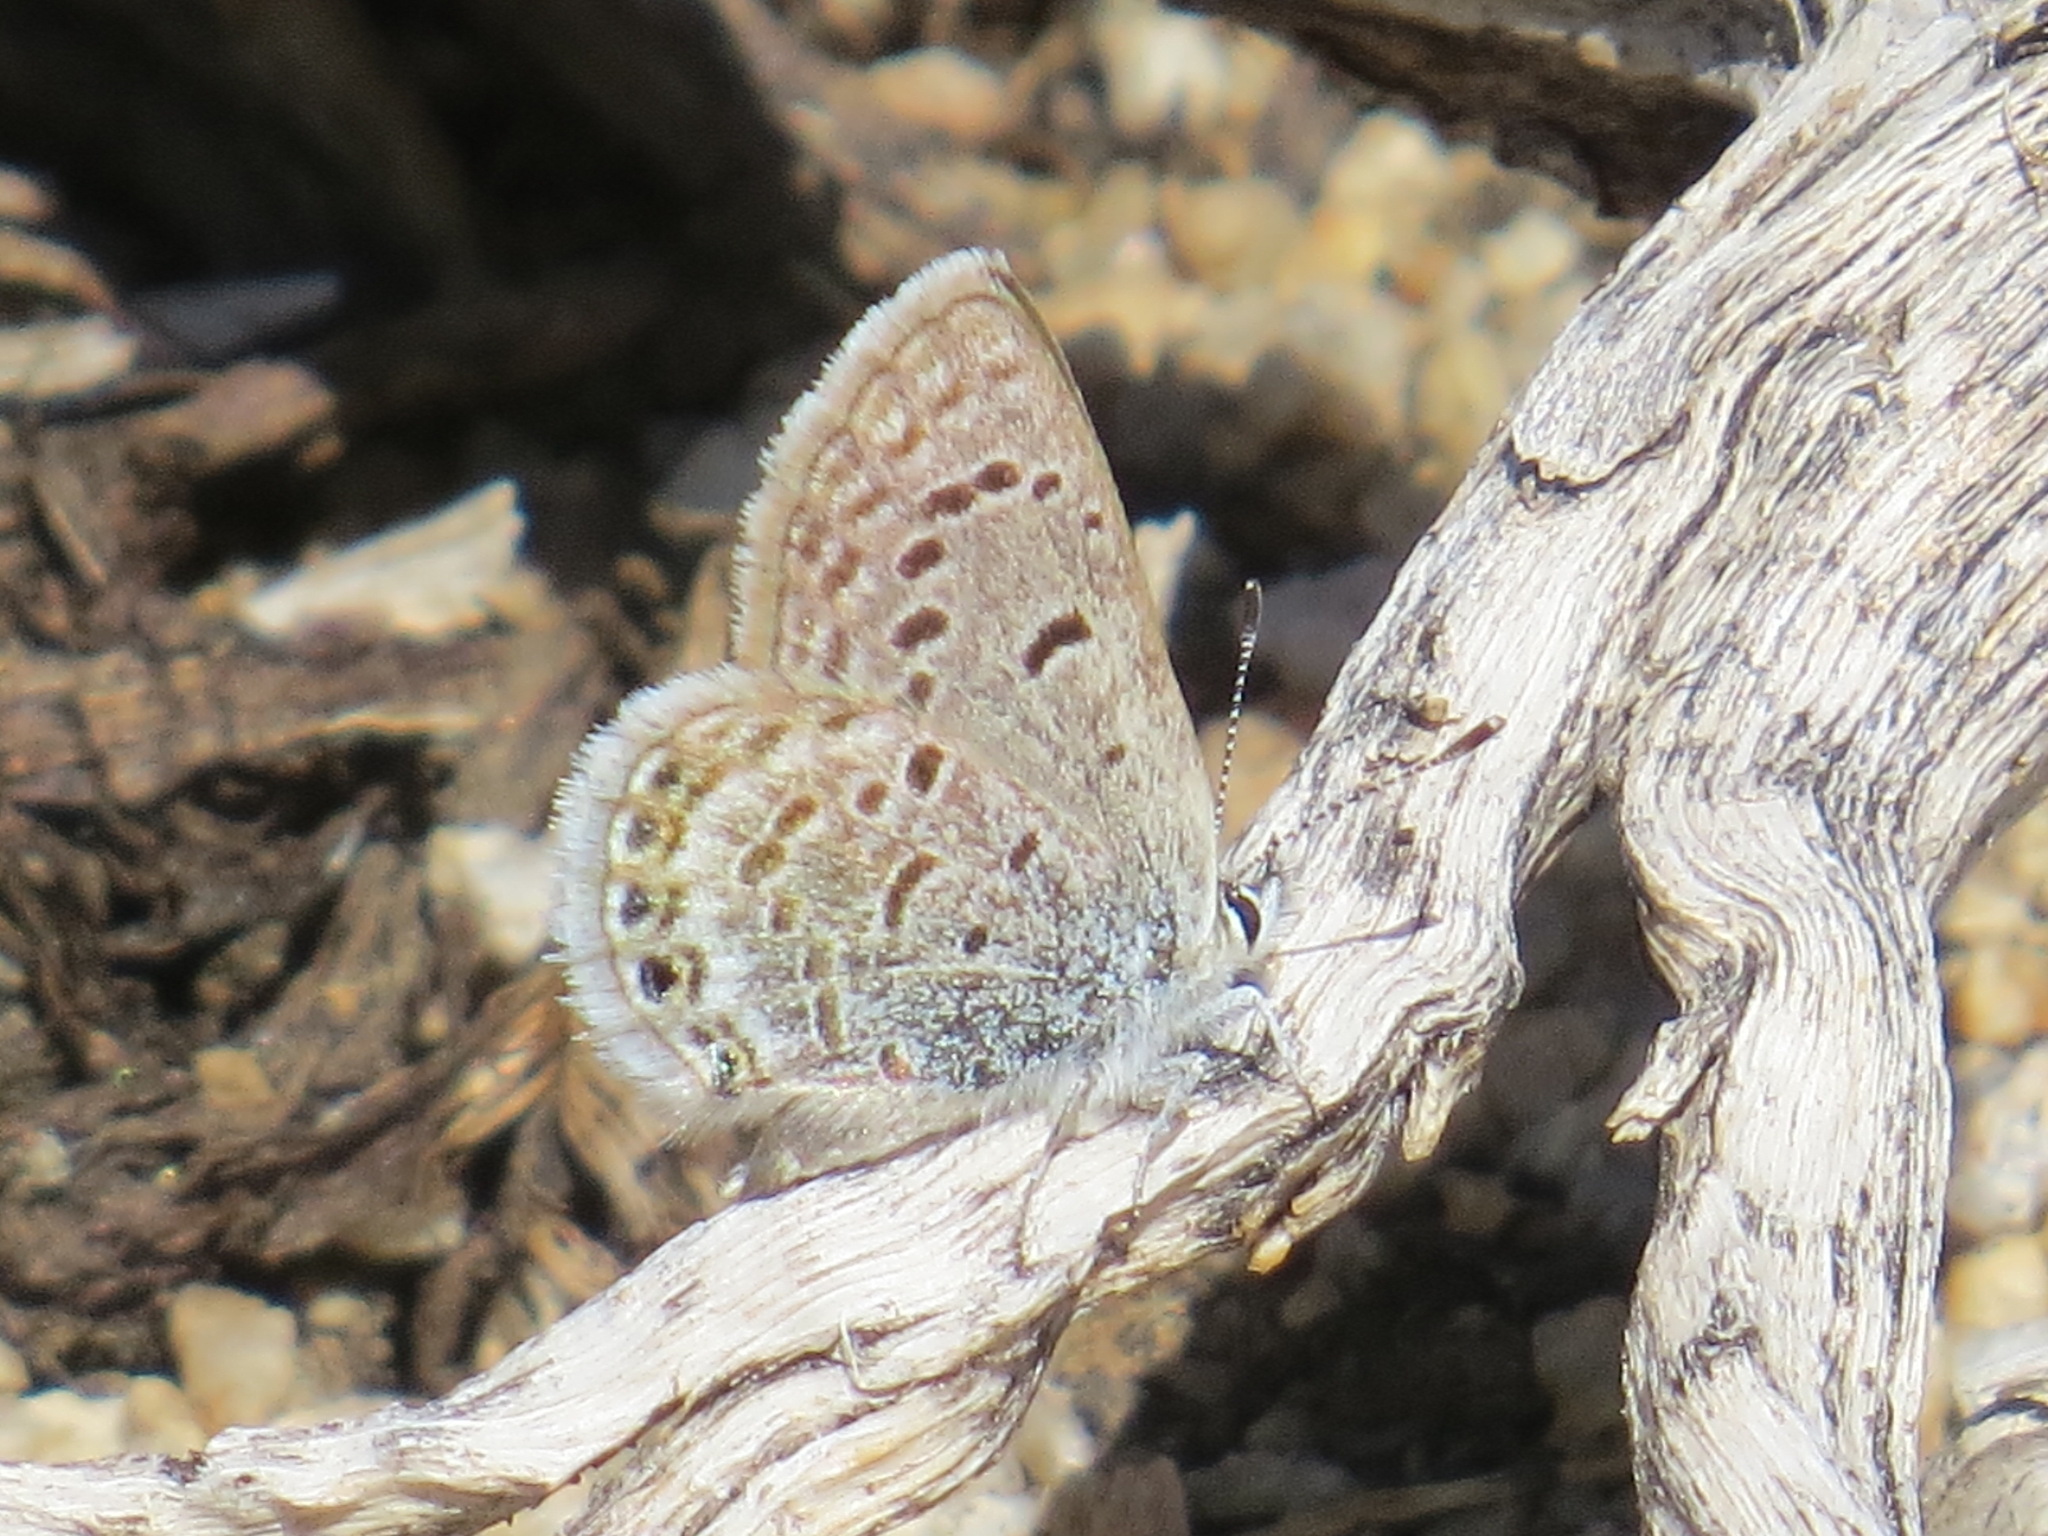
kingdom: Animalia
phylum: Arthropoda
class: Insecta
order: Lepidoptera
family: Lycaenidae
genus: Icaricia
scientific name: Icaricia shasta
